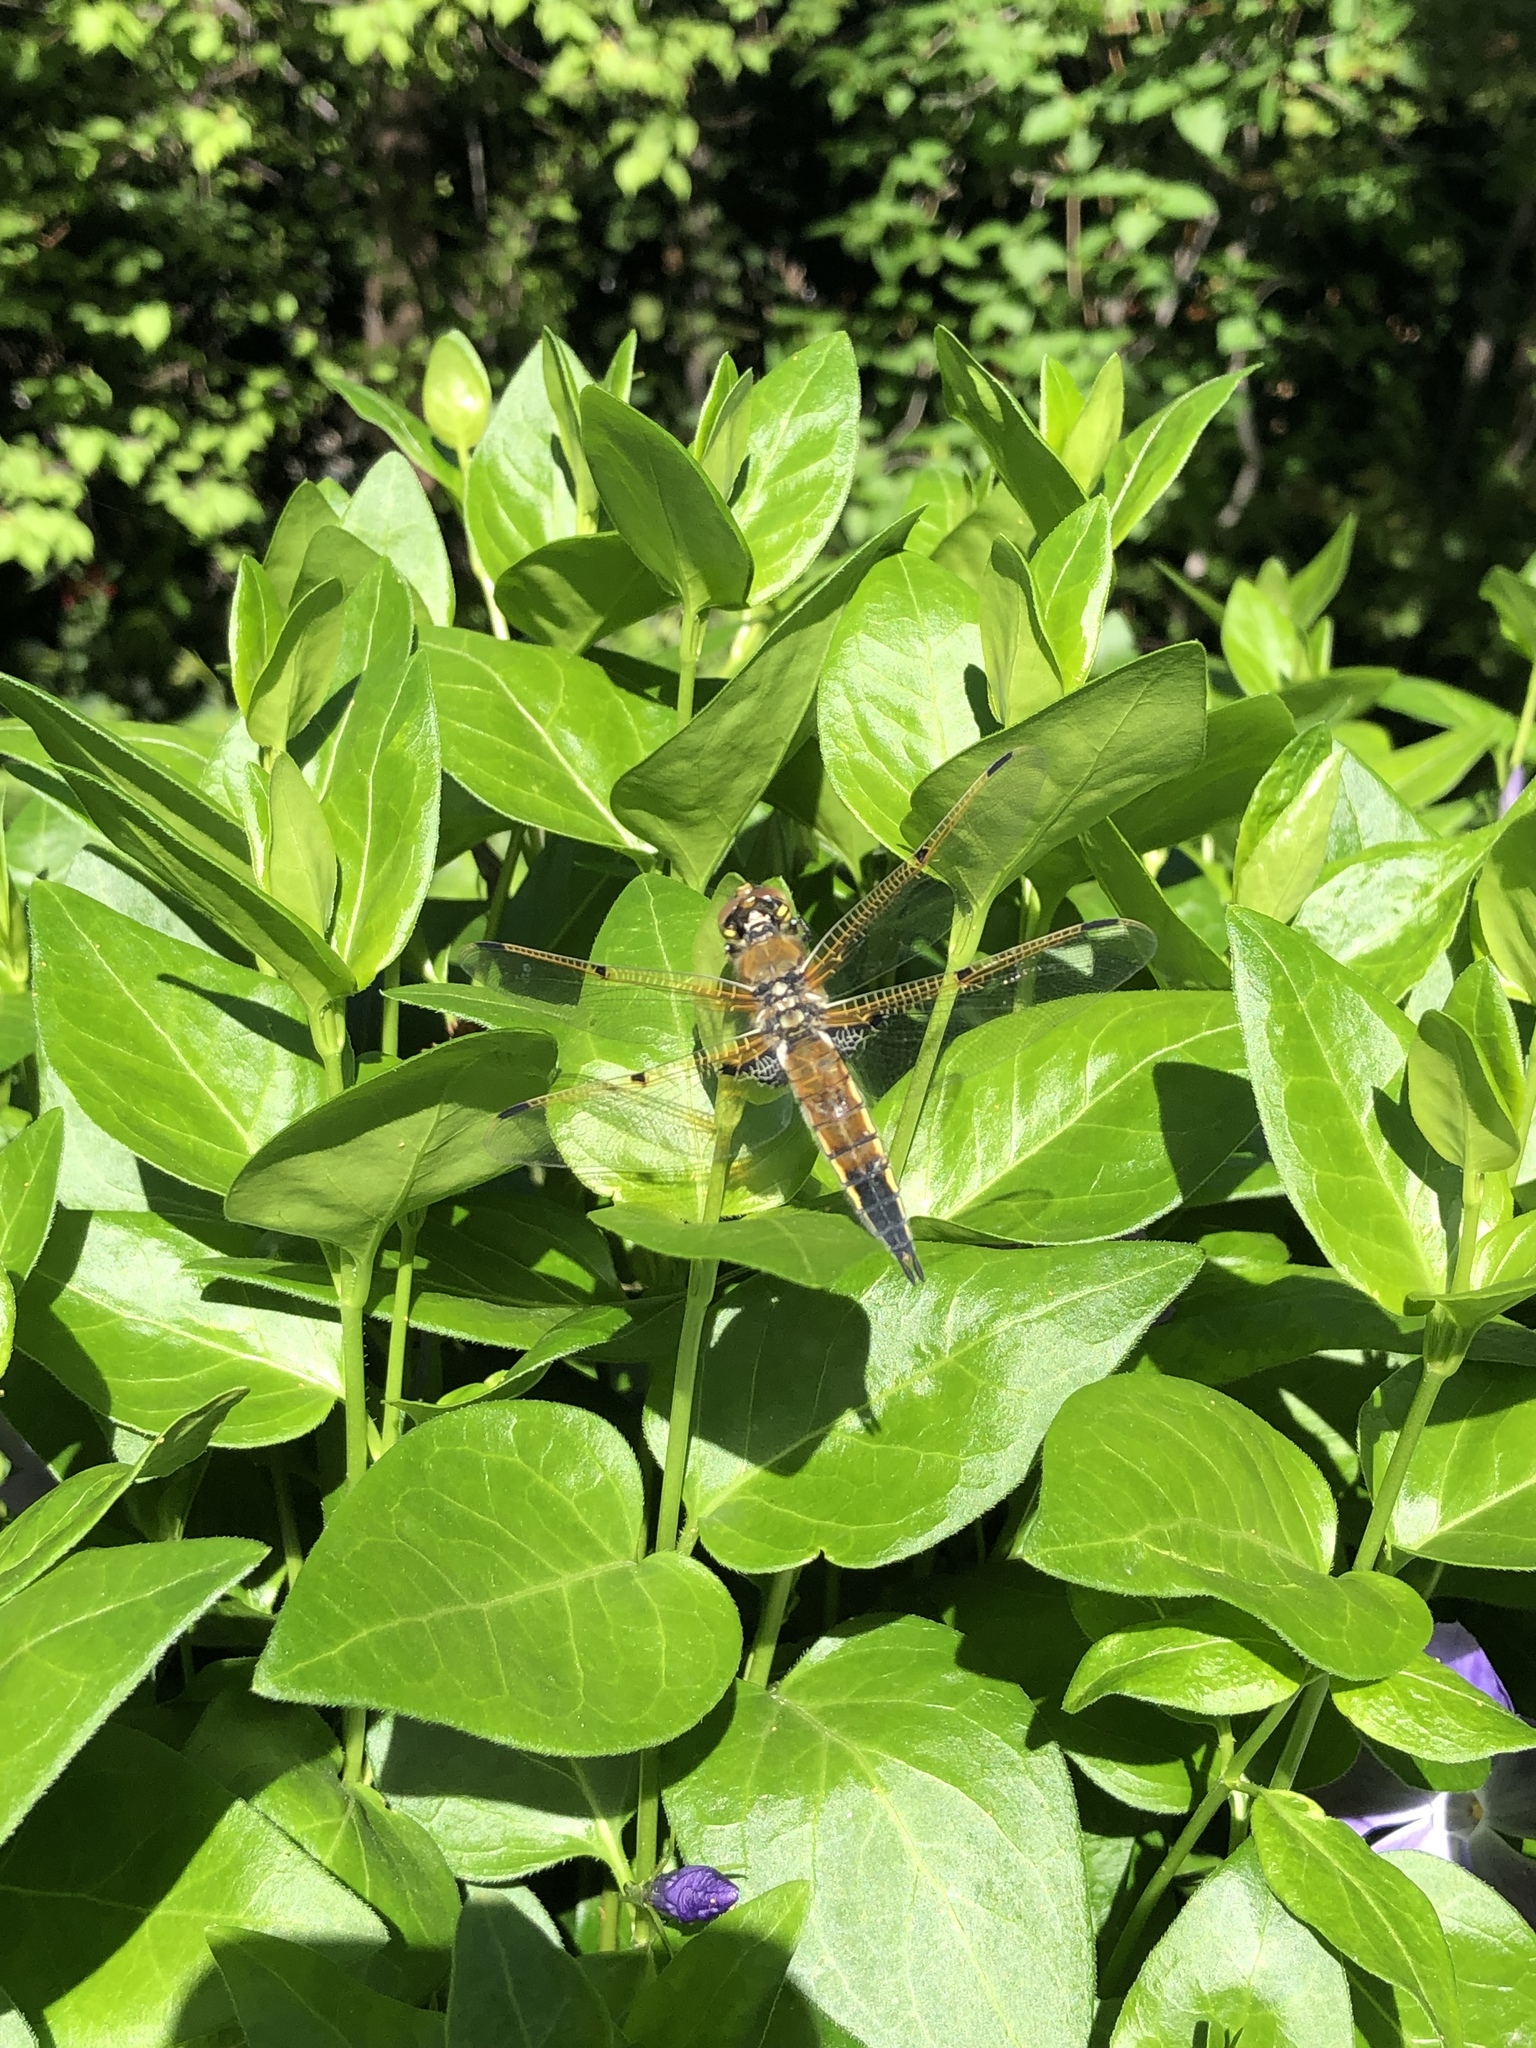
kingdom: Animalia
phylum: Arthropoda
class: Insecta
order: Odonata
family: Libellulidae
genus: Libellula
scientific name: Libellula quadrimaculata
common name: Four-spotted chaser
